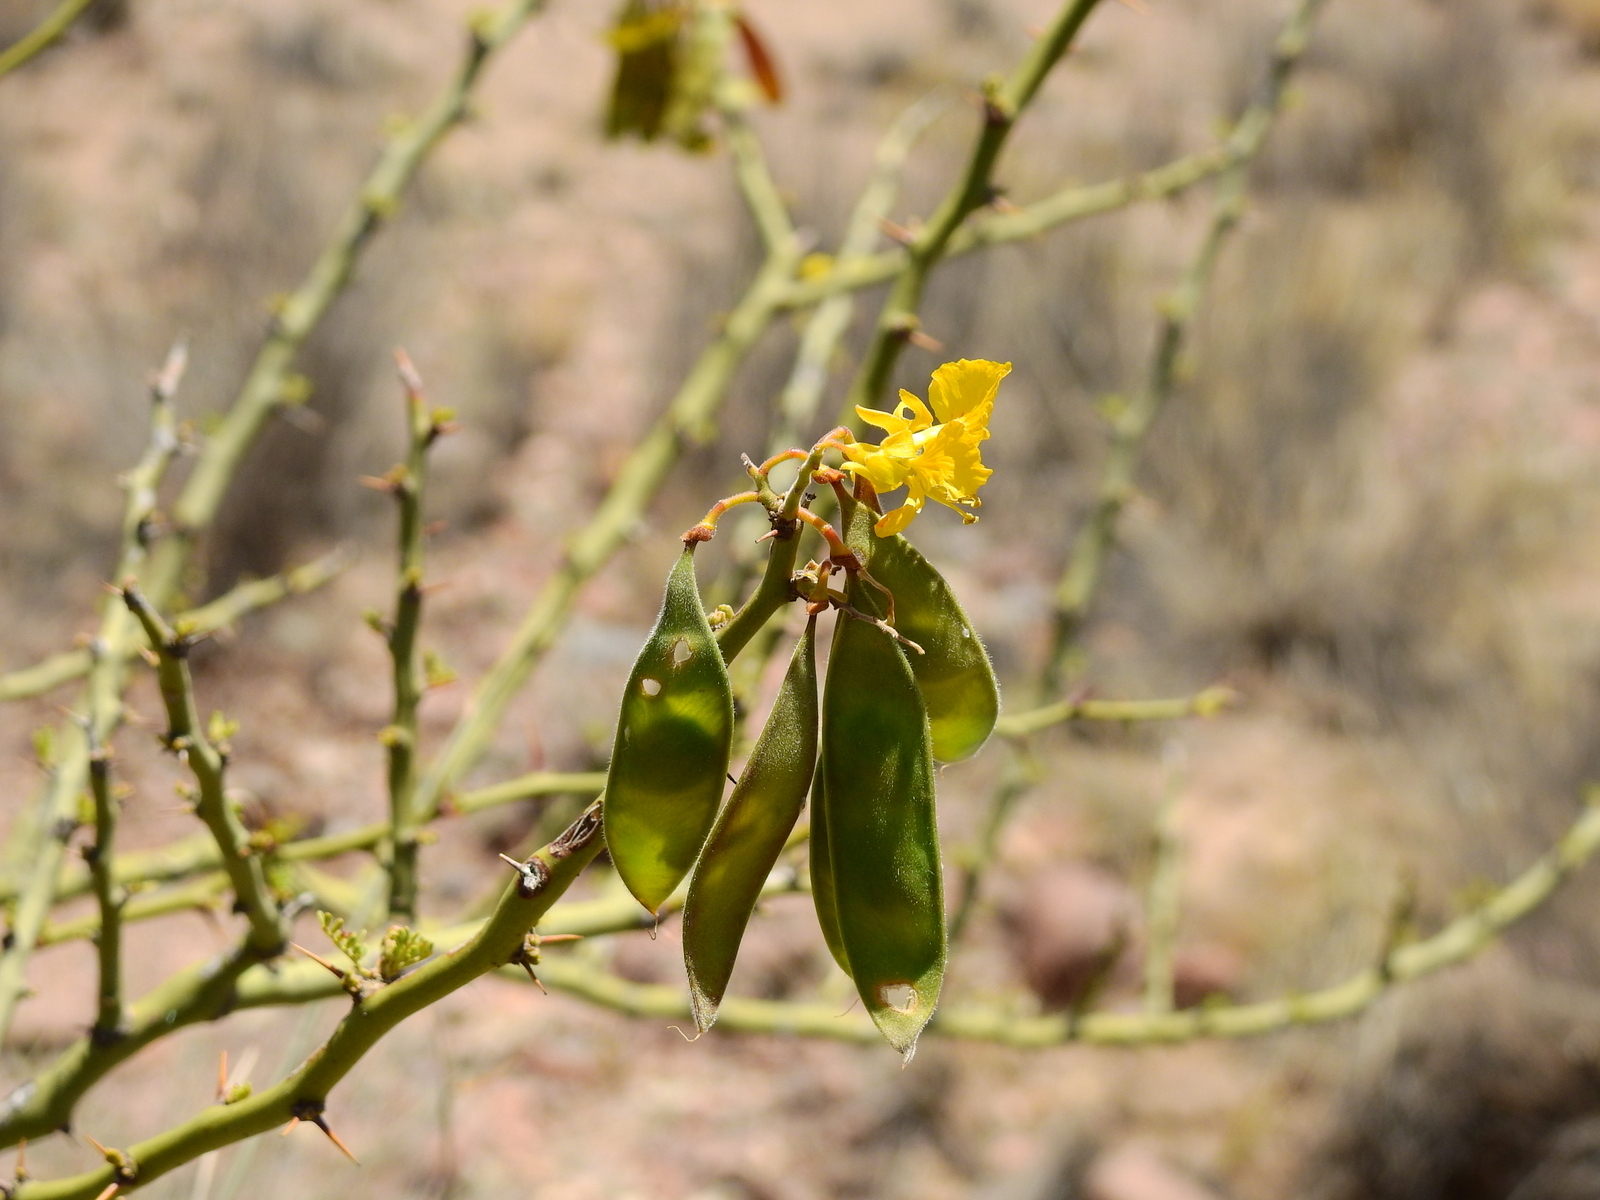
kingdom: Plantae
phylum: Tracheophyta
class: Magnoliopsida
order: Fabales
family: Fabaceae
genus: Parkinsonia
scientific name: Parkinsonia praecox
